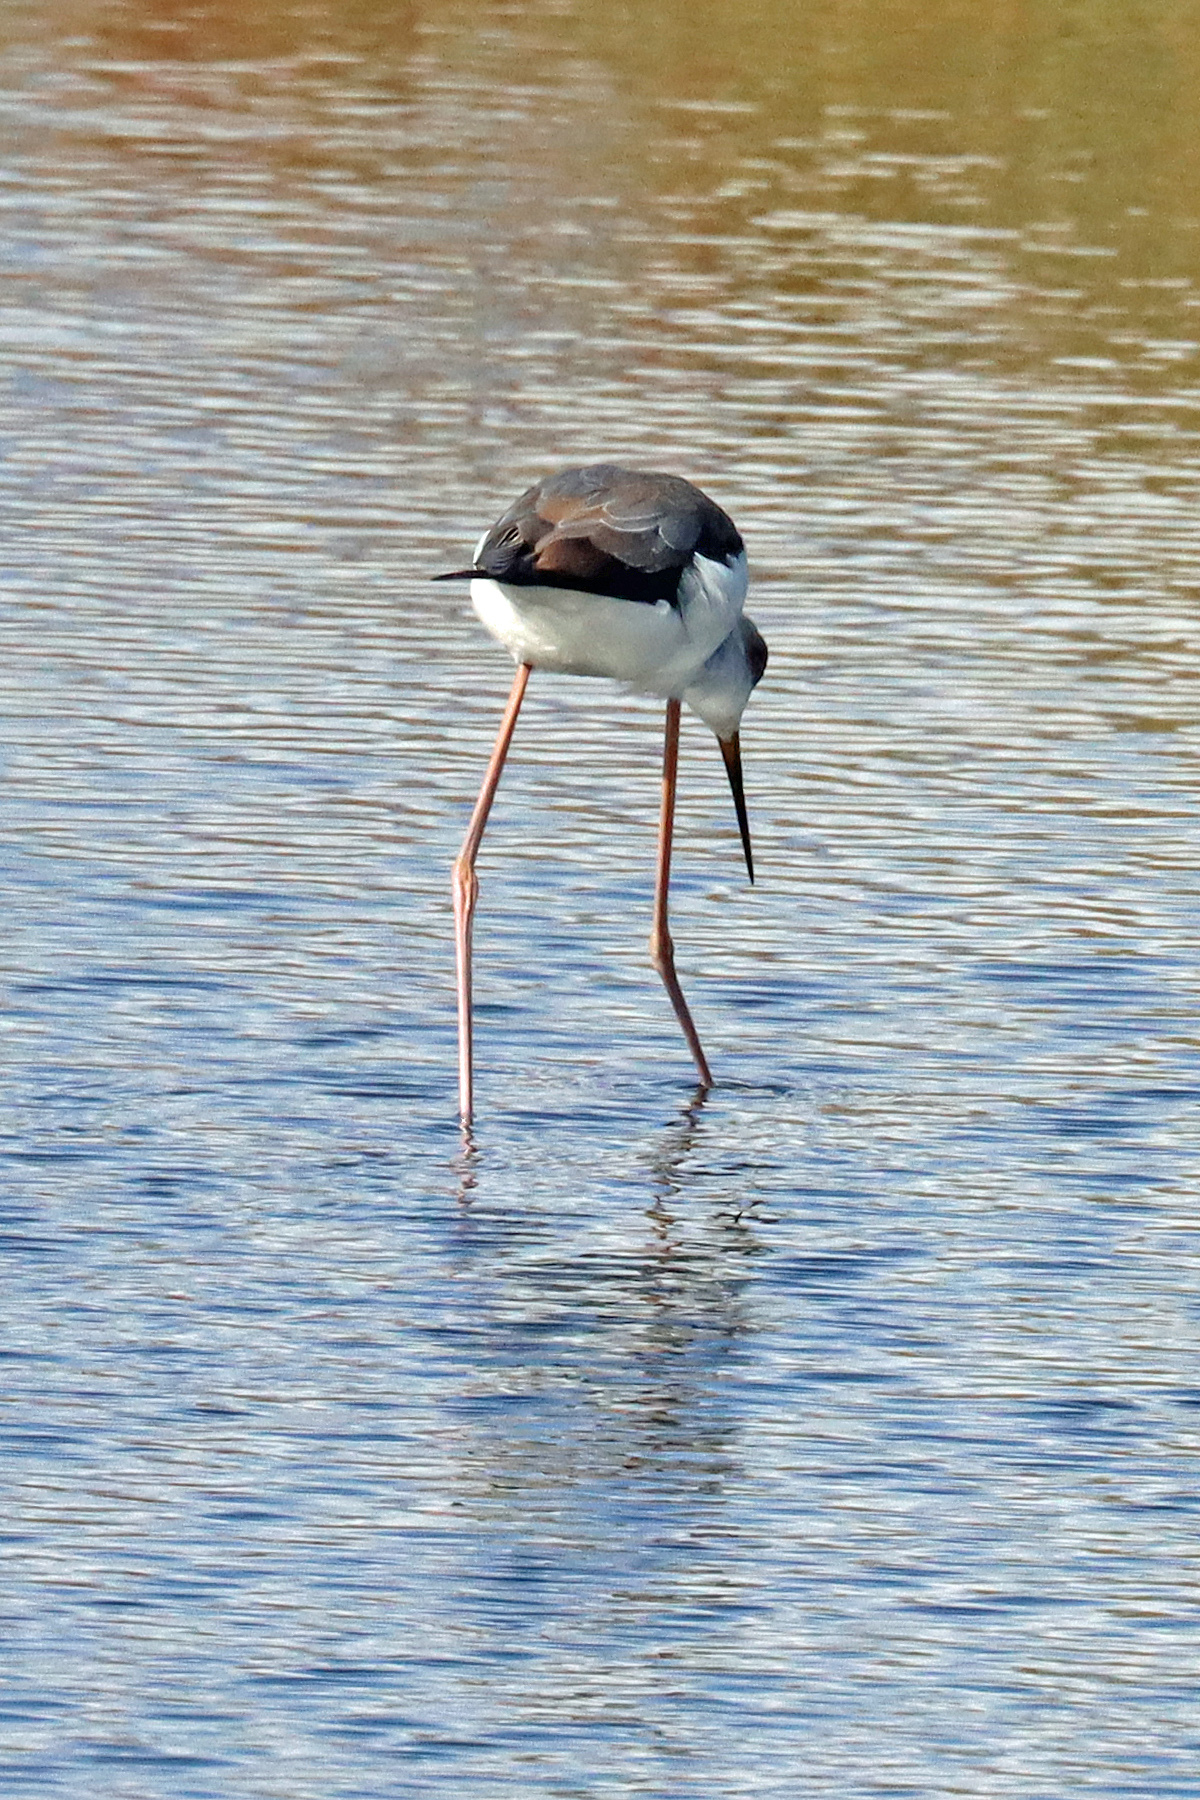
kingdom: Animalia
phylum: Chordata
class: Aves
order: Charadriiformes
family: Recurvirostridae
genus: Himantopus
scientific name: Himantopus himantopus
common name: Black-winged stilt
